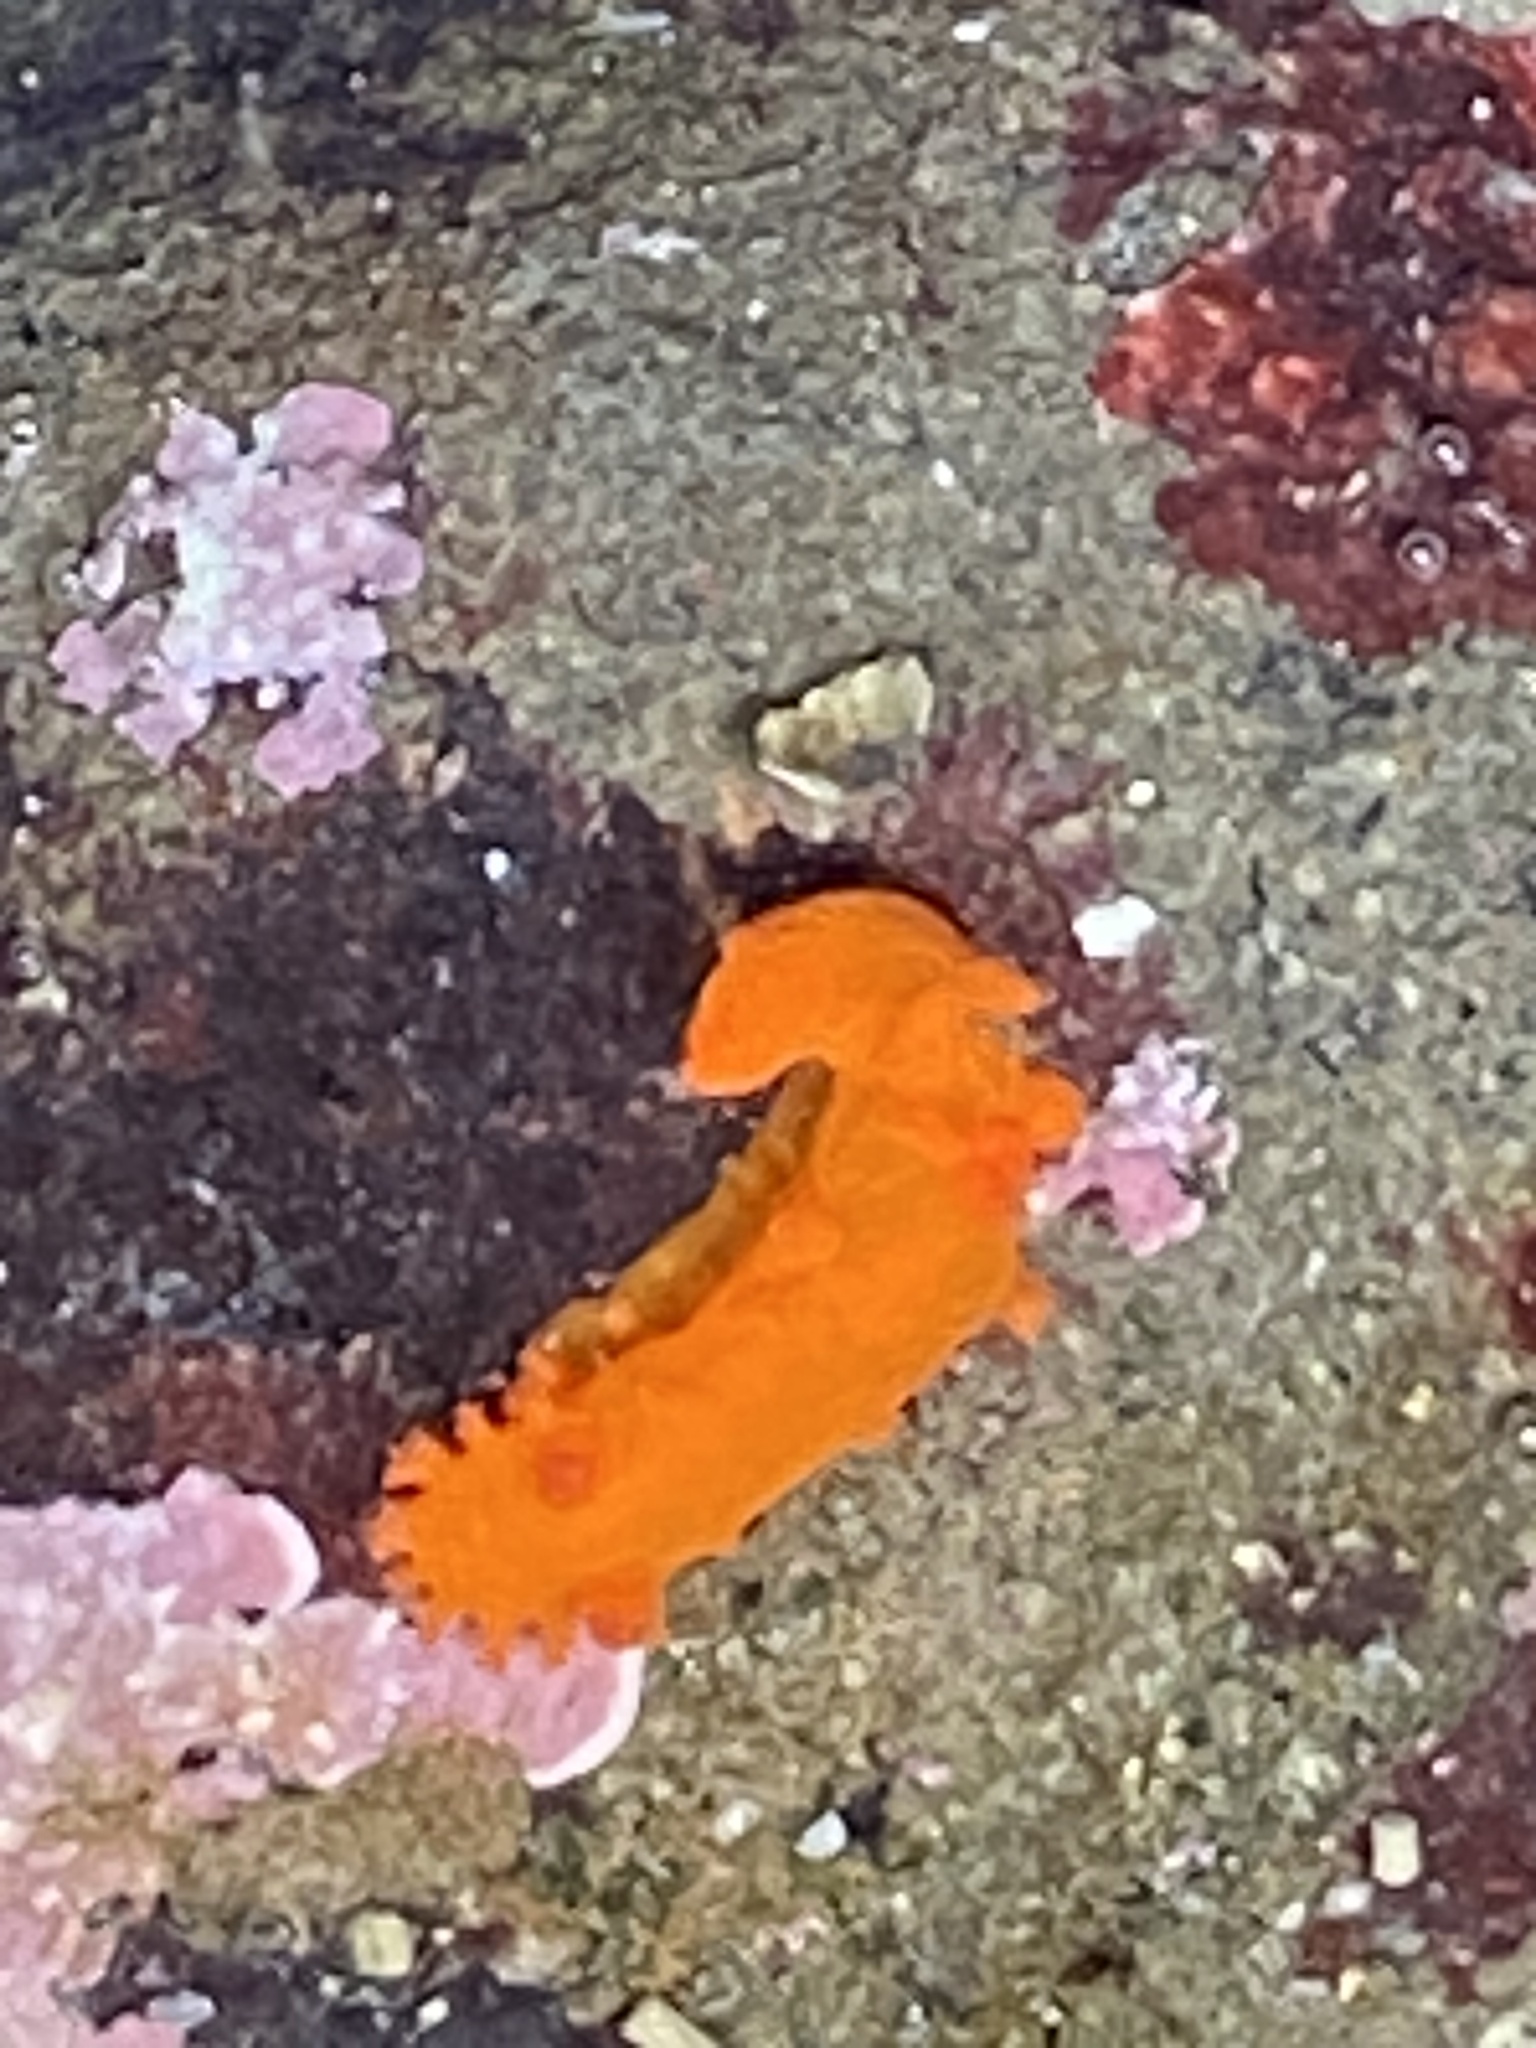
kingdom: Animalia
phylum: Mollusca
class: Gastropoda
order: Nudibranchia
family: Polyceridae
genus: Triopha
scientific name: Triopha maculata
